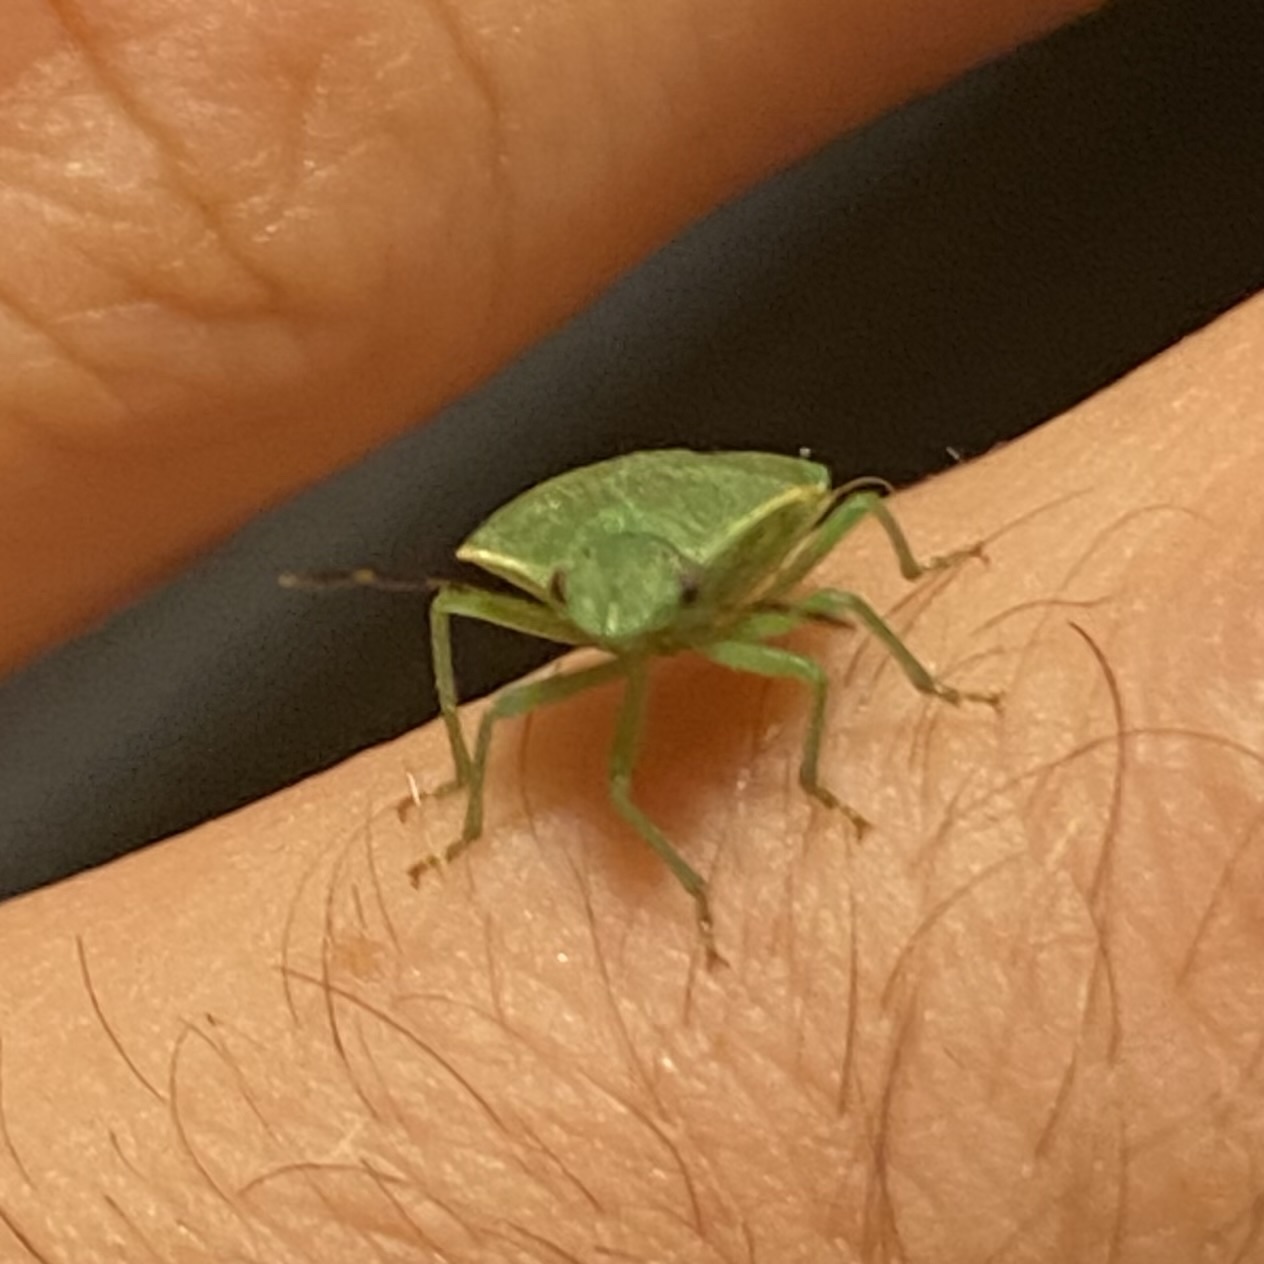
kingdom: Animalia
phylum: Arthropoda
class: Insecta
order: Hemiptera
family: Pentatomidae
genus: Thyanta
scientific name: Thyanta accerra
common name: Stink bug
